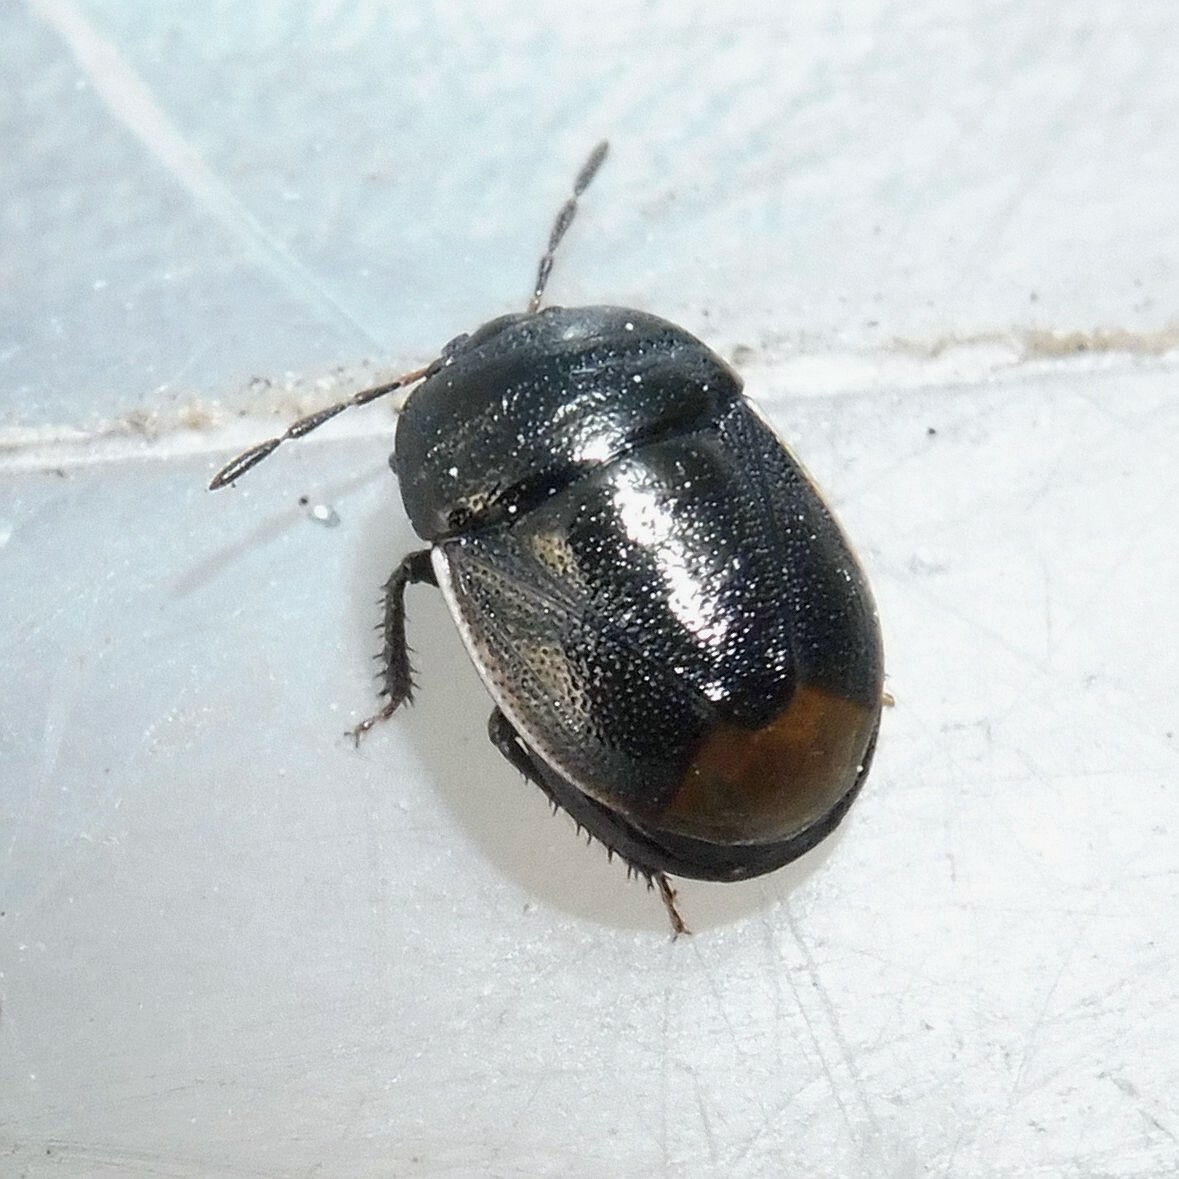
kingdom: Animalia
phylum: Arthropoda
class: Insecta
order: Hemiptera
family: Cydnidae
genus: Legnotus
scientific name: Legnotus limbosus
